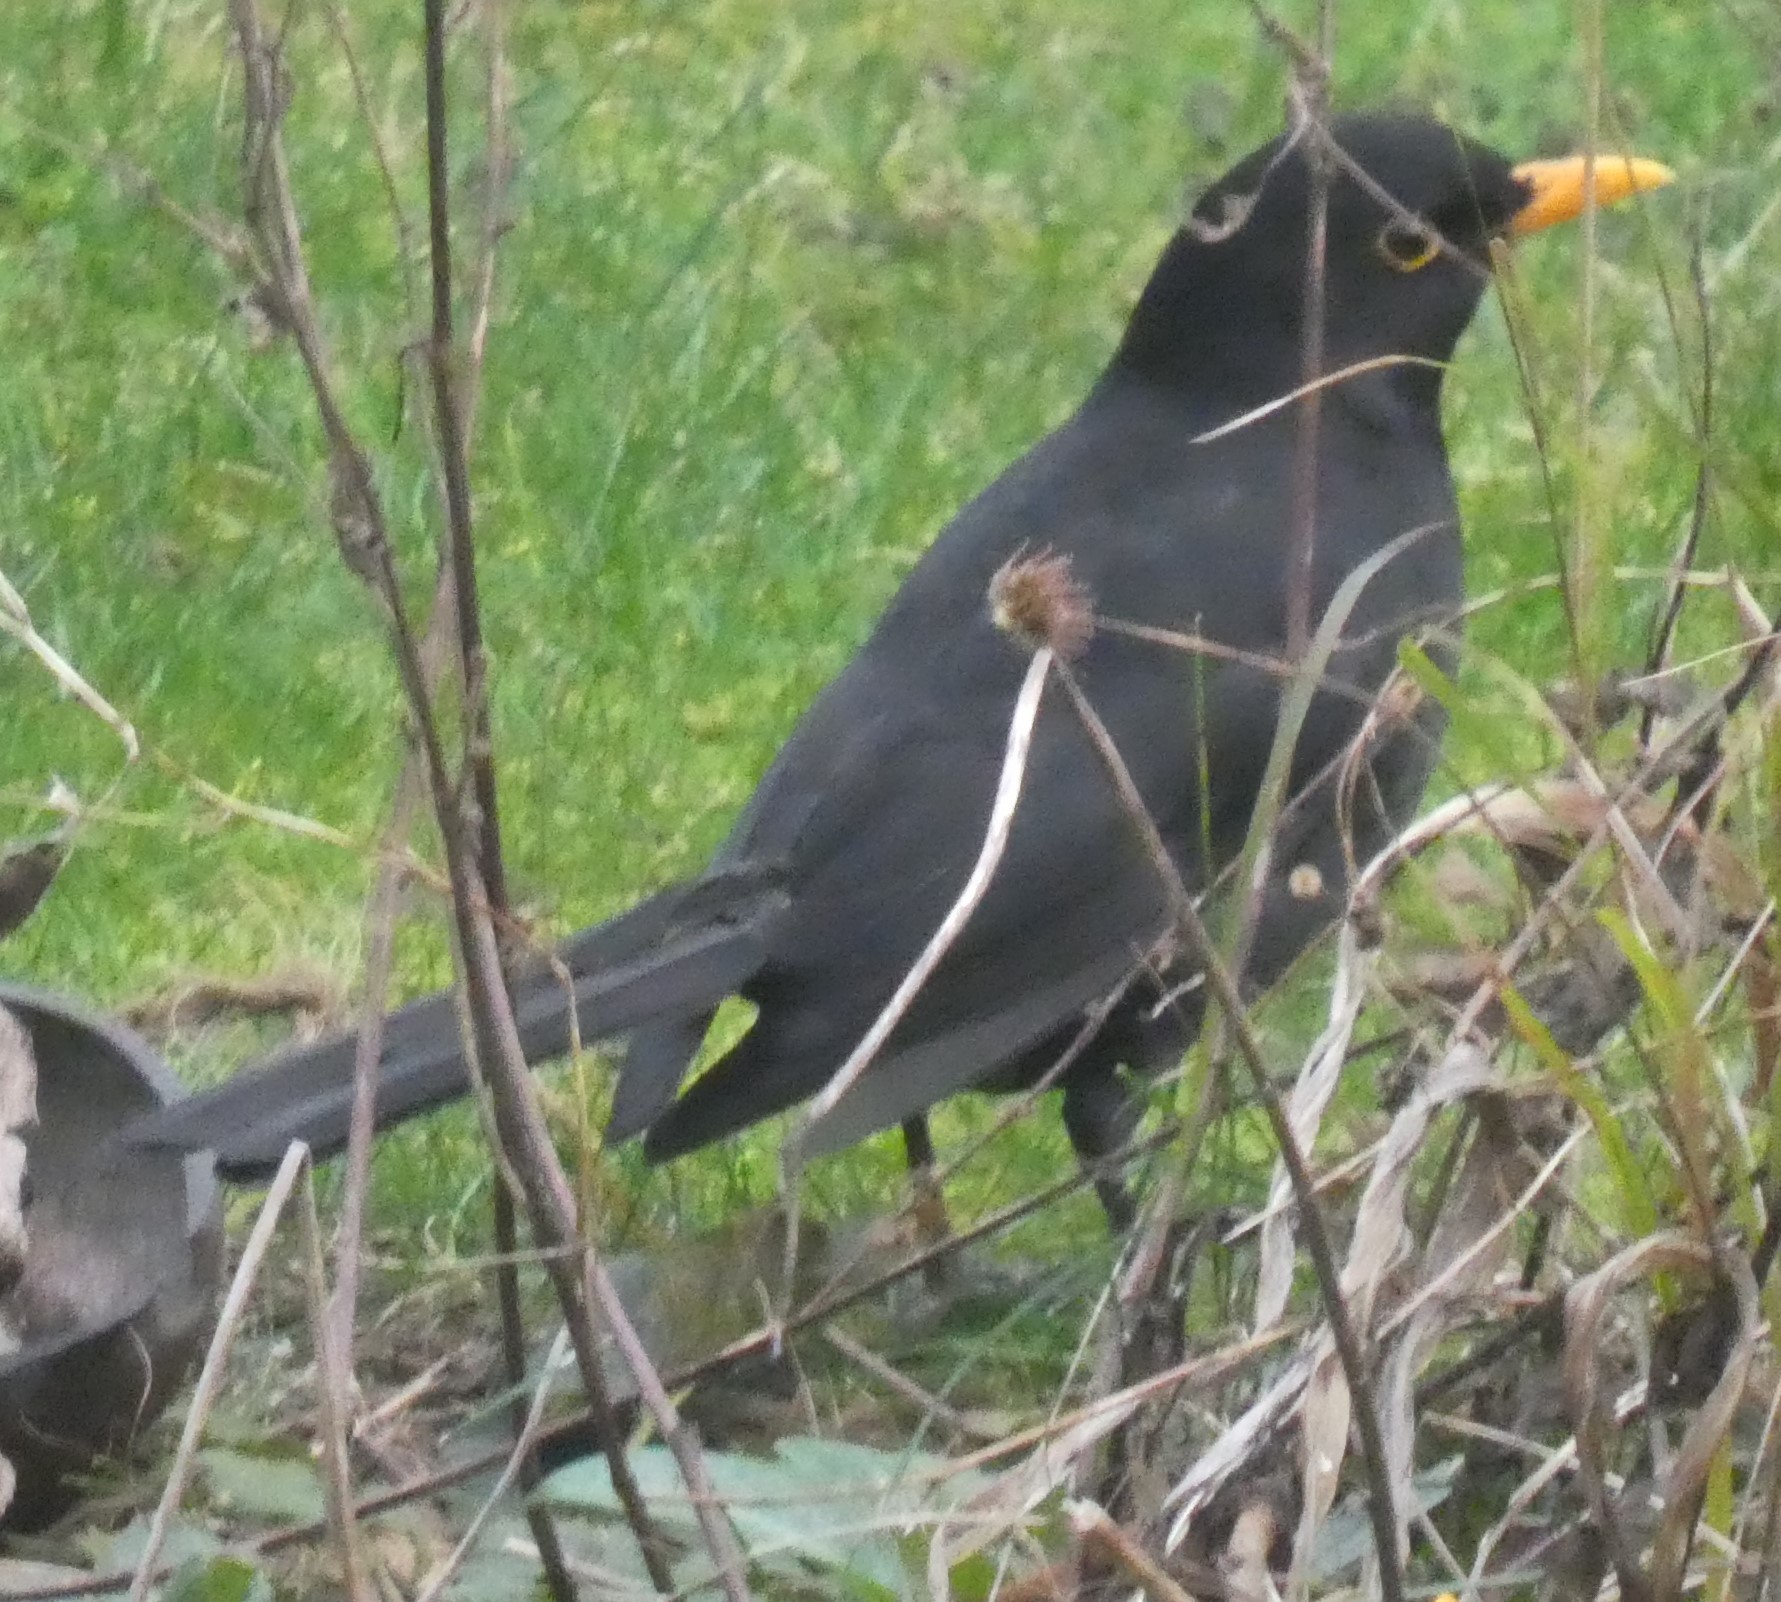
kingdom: Animalia
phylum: Chordata
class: Aves
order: Passeriformes
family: Turdidae
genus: Turdus
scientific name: Turdus merula
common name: Common blackbird
